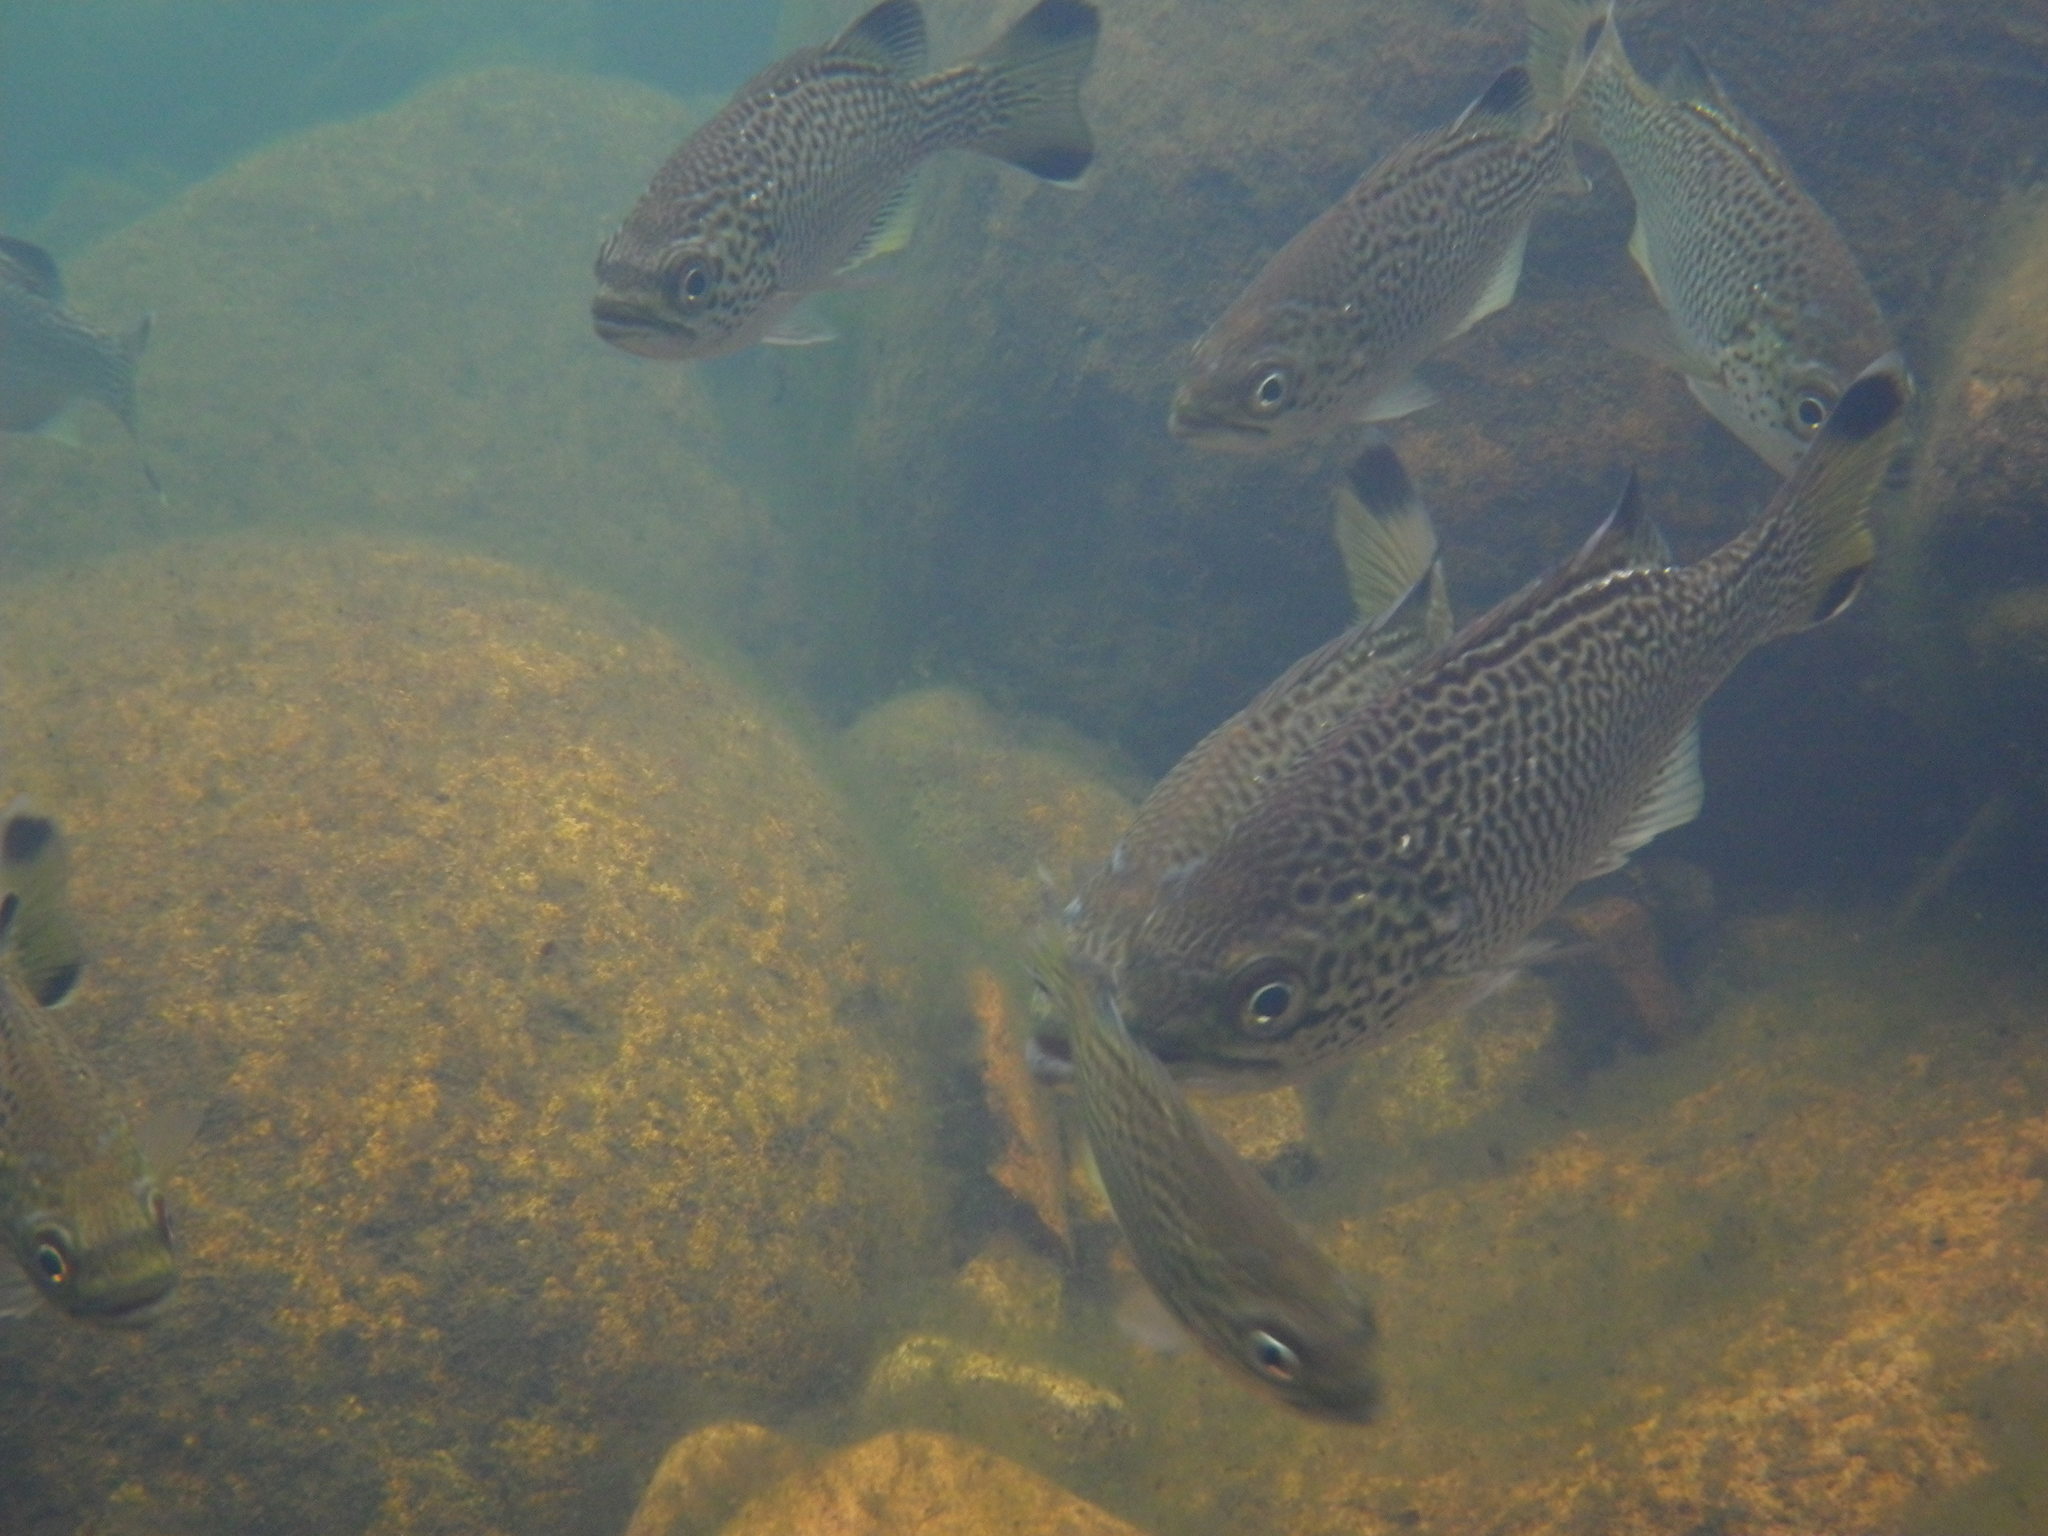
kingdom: Animalia
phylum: Chordata
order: Perciformes
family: Kuhliidae
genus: Kuhlia
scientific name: Kuhlia rupestris
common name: Rock flagtail
